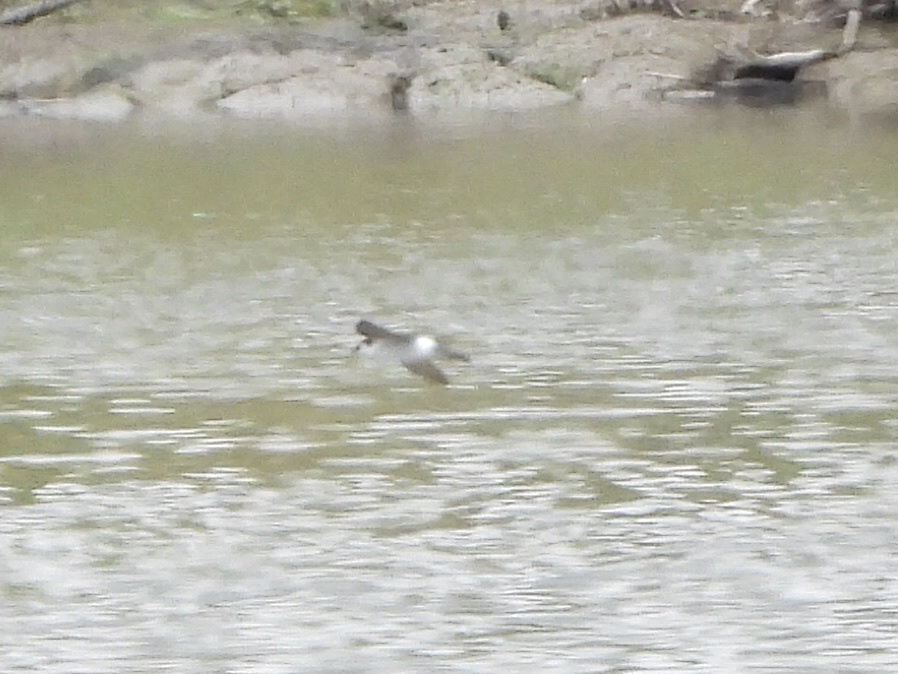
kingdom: Animalia
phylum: Chordata
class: Aves
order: Passeriformes
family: Hirundinidae
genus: Tachycineta
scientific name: Tachycineta thalassina
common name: Violet-green swallow
